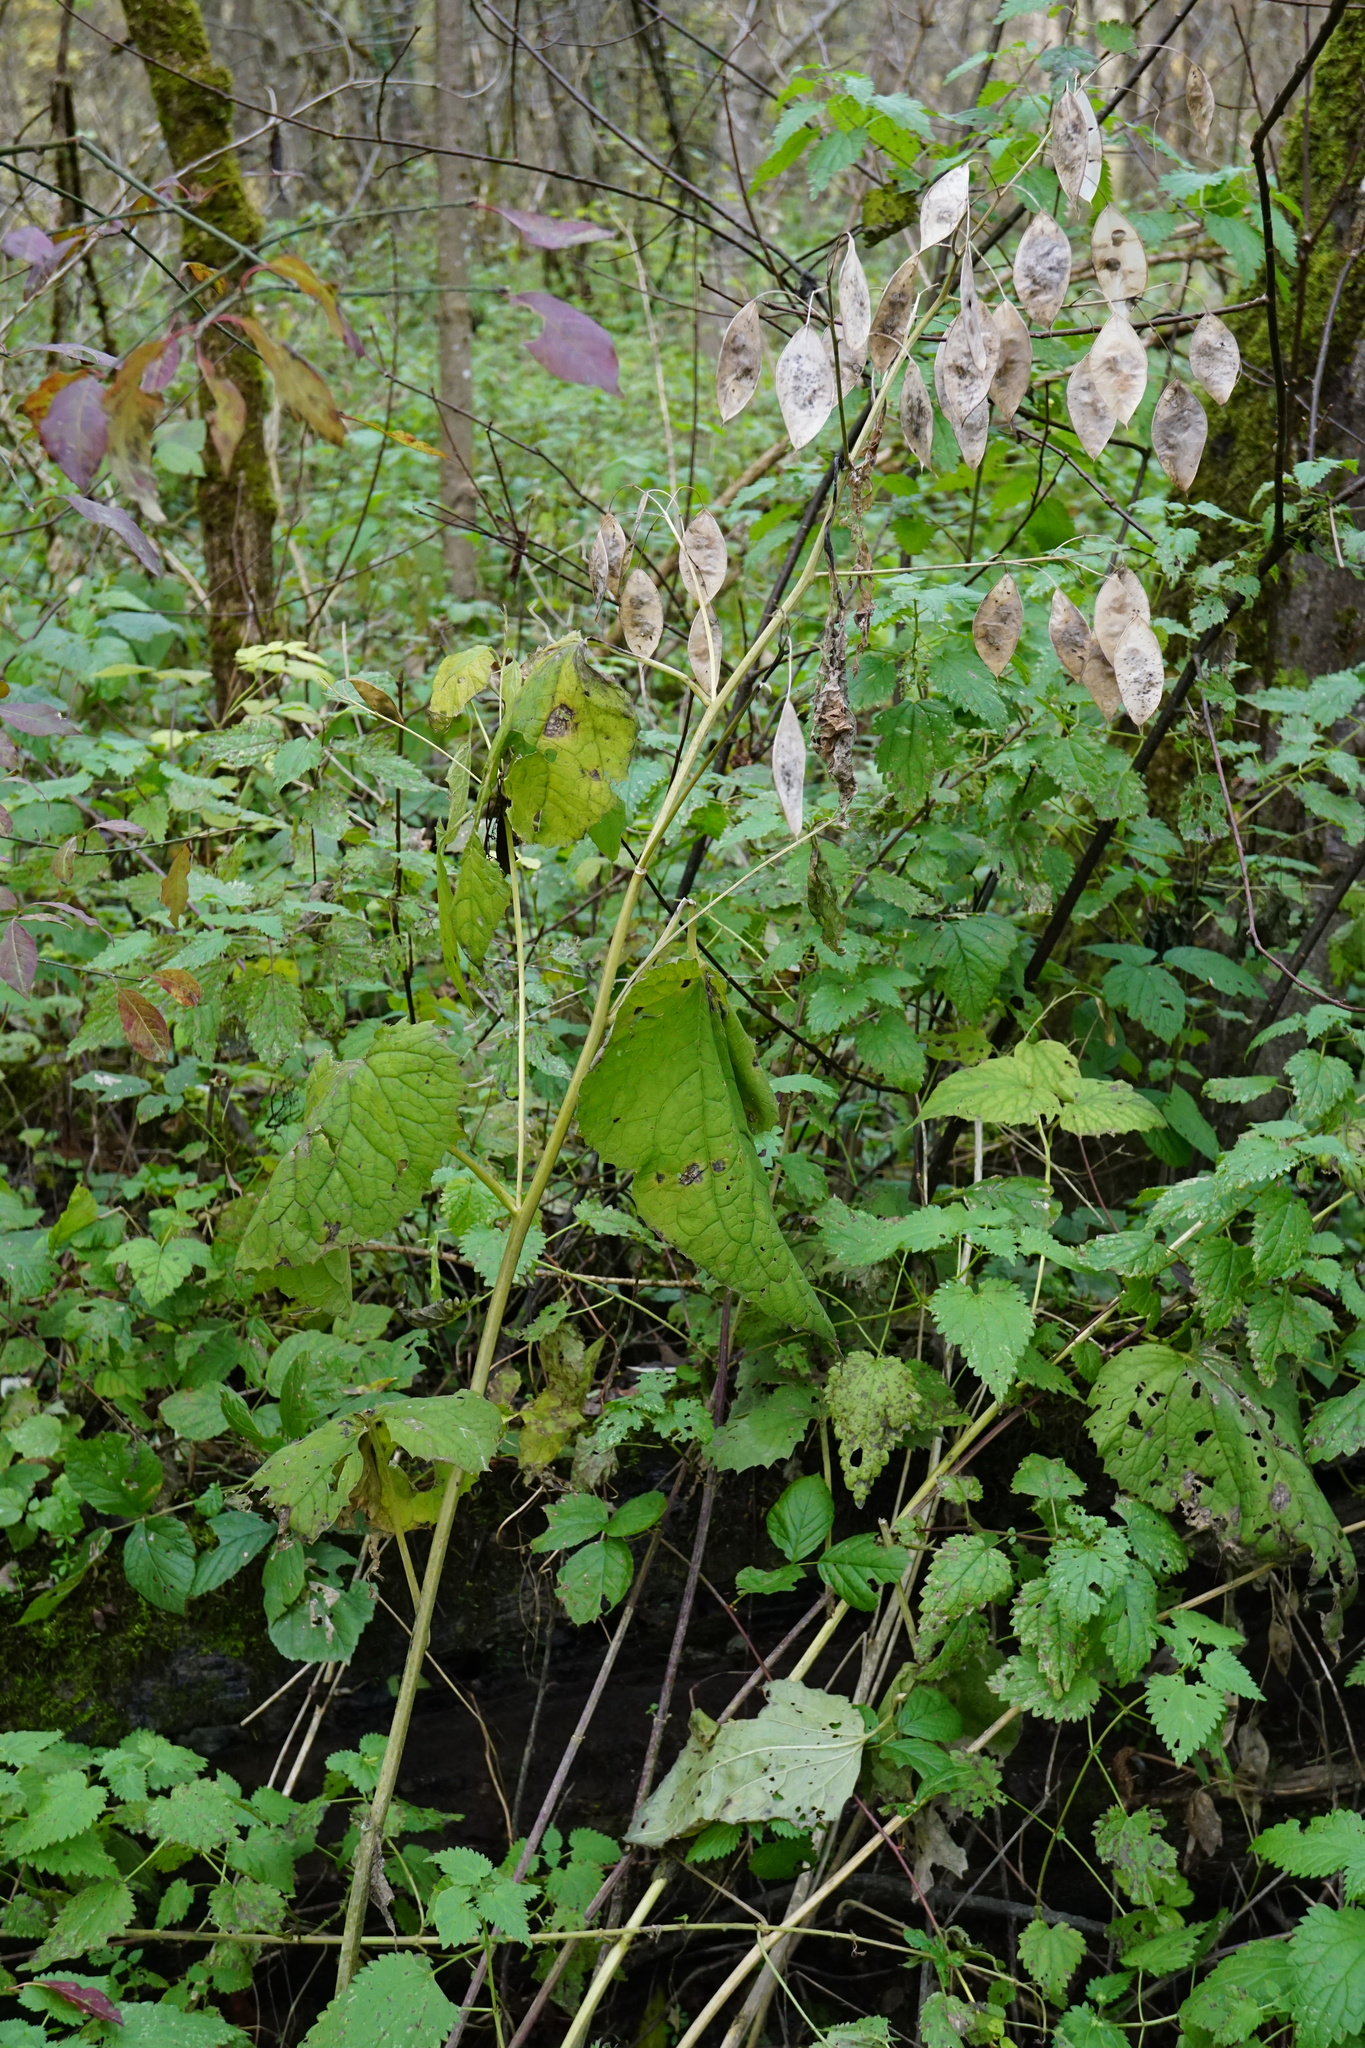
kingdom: Plantae
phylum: Tracheophyta
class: Magnoliopsida
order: Brassicales
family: Brassicaceae
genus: Lunaria
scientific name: Lunaria rediviva
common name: Perennial honesty
